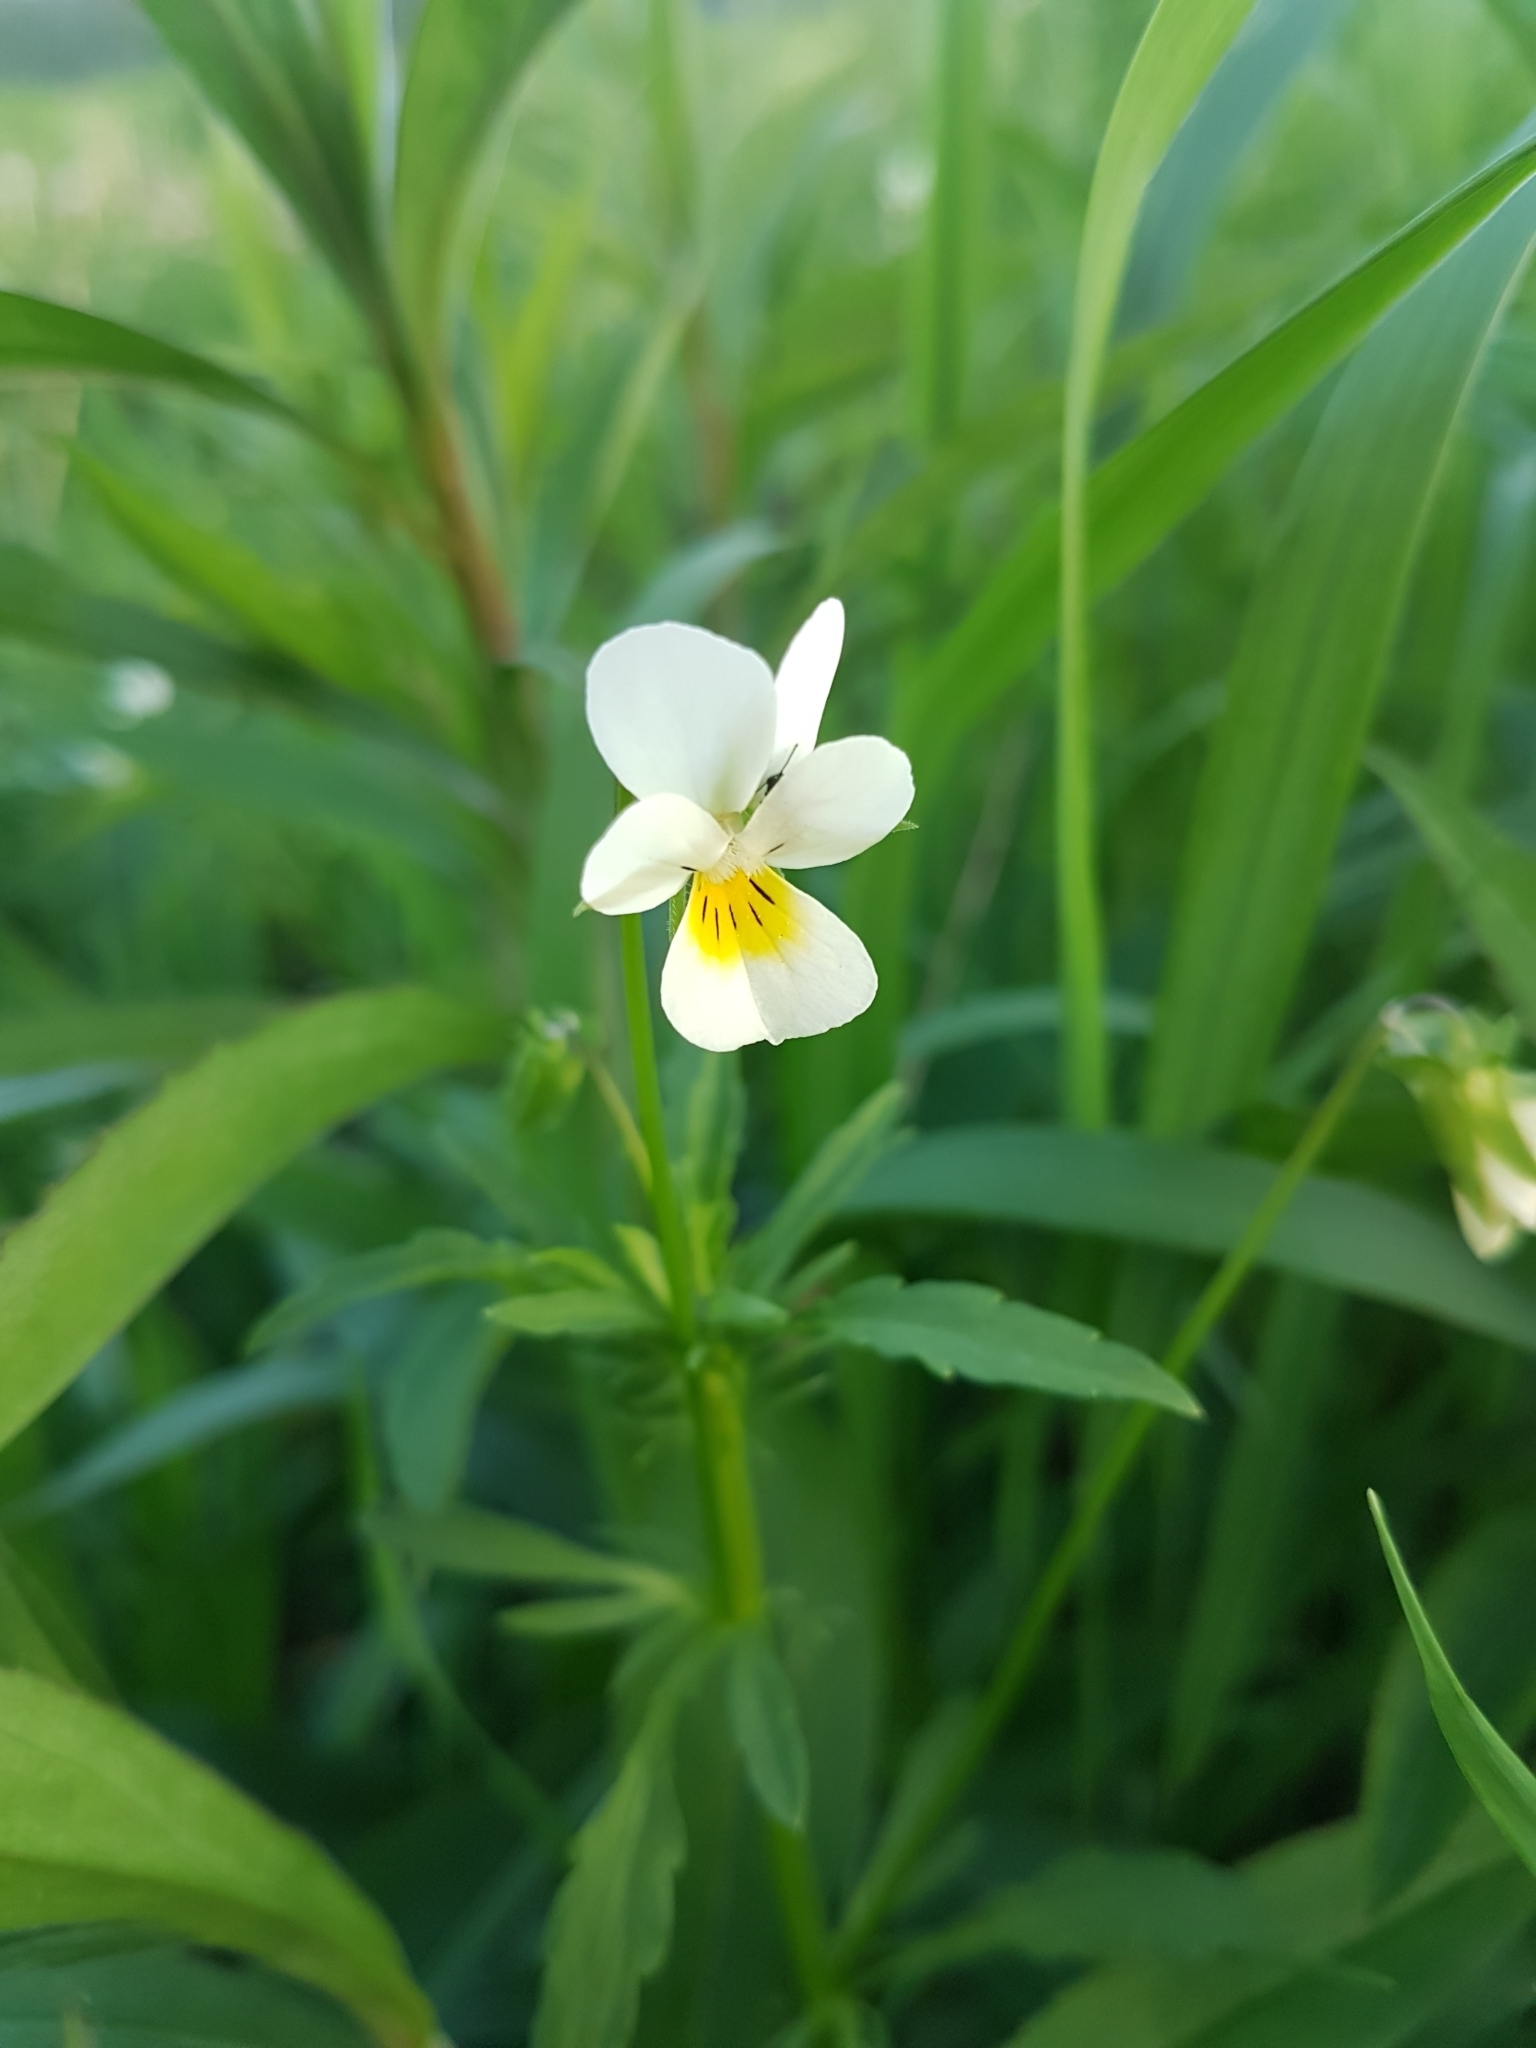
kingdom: Plantae
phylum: Tracheophyta
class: Magnoliopsida
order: Malpighiales
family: Violaceae
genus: Viola
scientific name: Viola arvensis
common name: Field pansy
